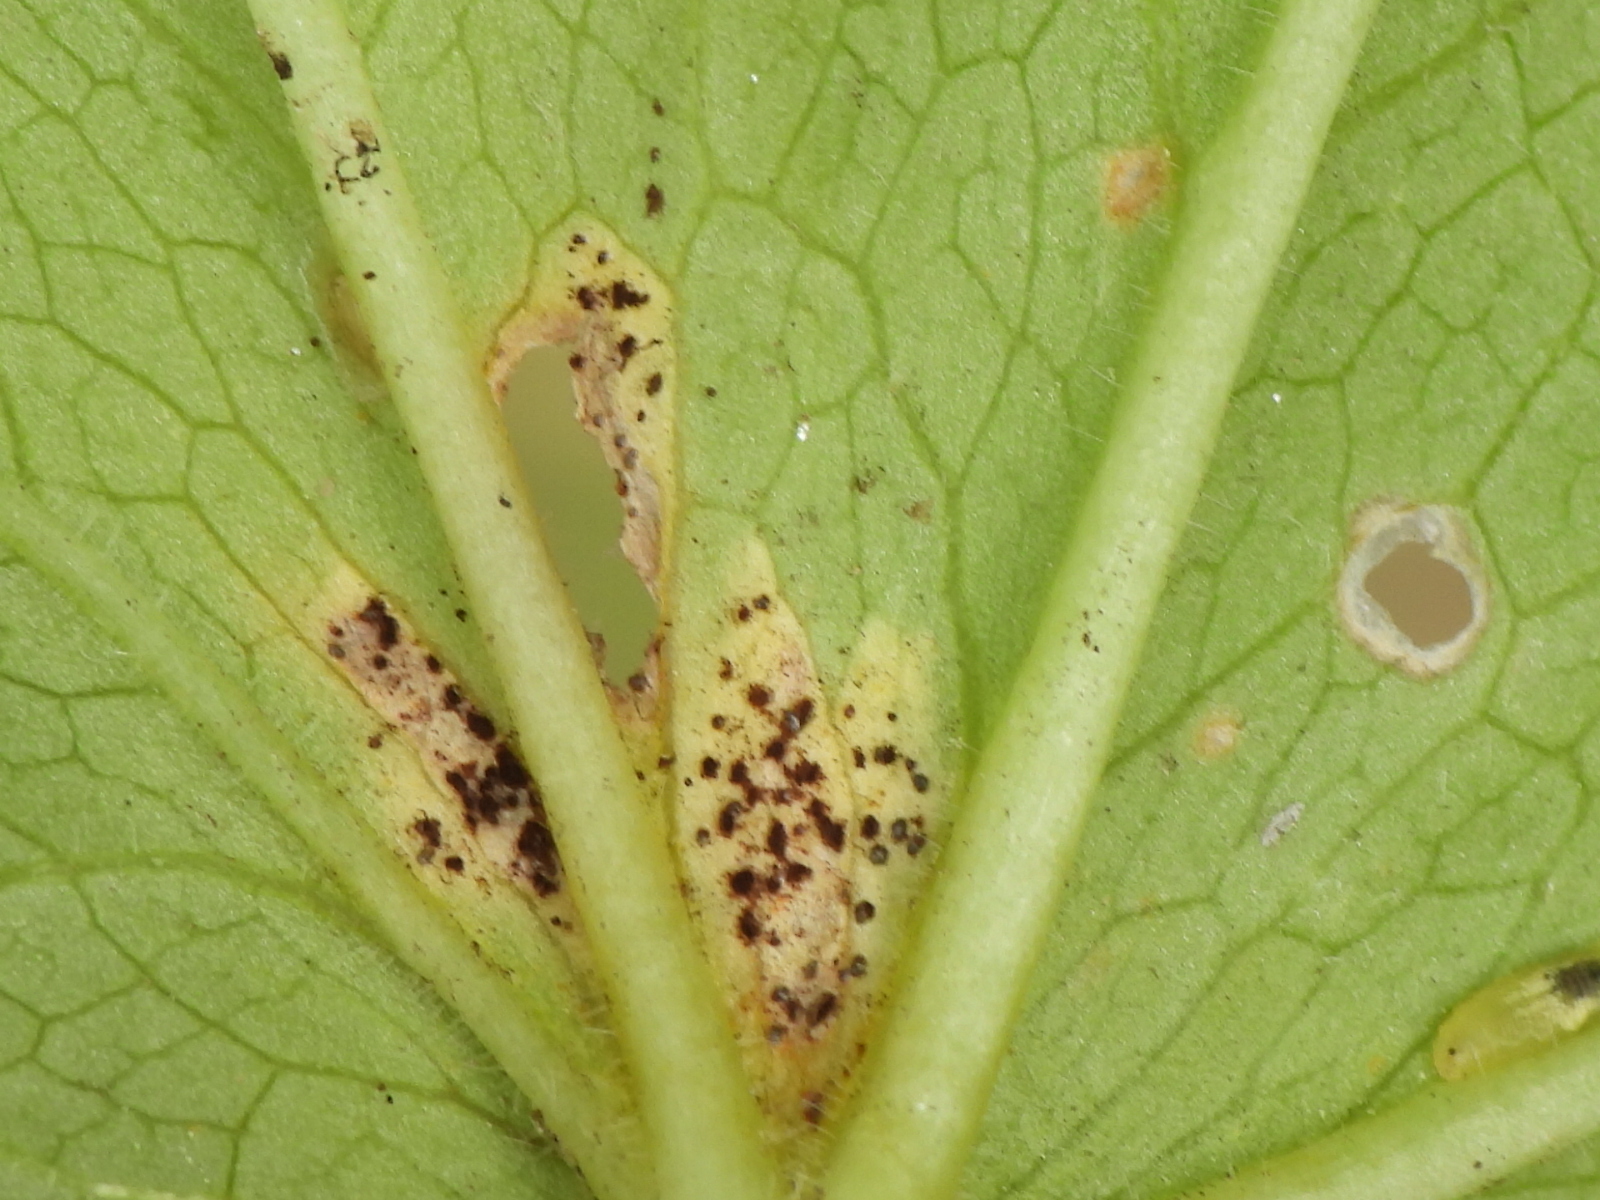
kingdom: Fungi
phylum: Basidiomycota
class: Pucciniomycetes
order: Pucciniales
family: Pucciniaceae
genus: Puccinia
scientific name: Puccinia podophylli
